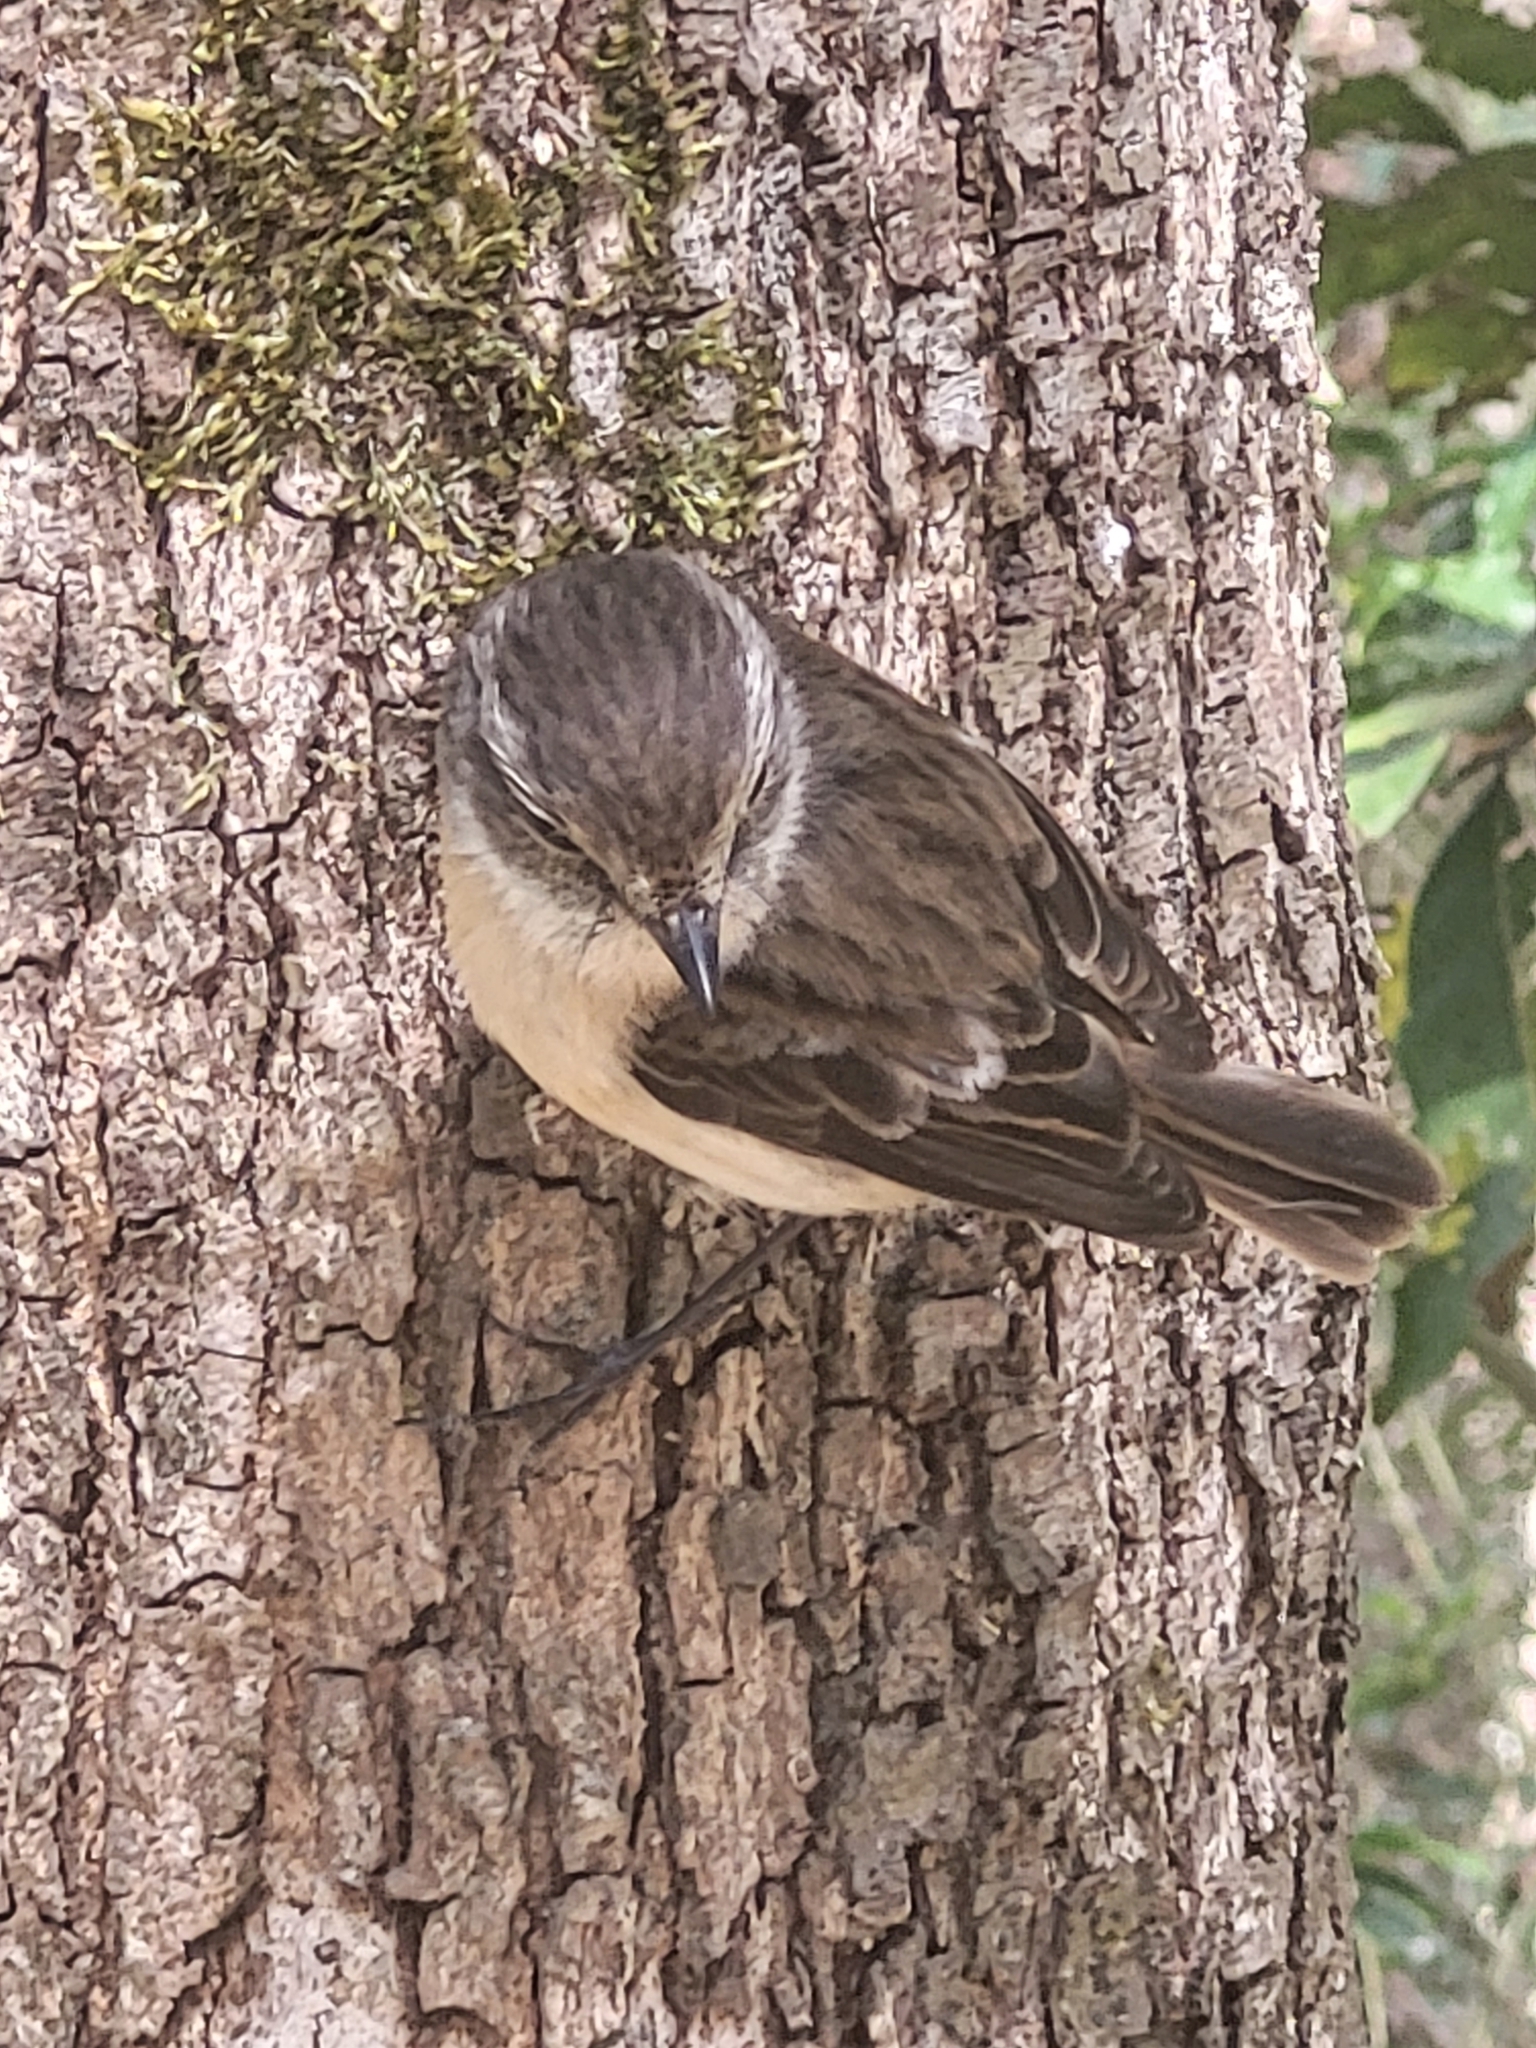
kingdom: Animalia
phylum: Chordata
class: Aves
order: Passeriformes
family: Muscicapidae
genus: Saxicola
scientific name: Saxicola tectes
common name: Reunion stonechat
